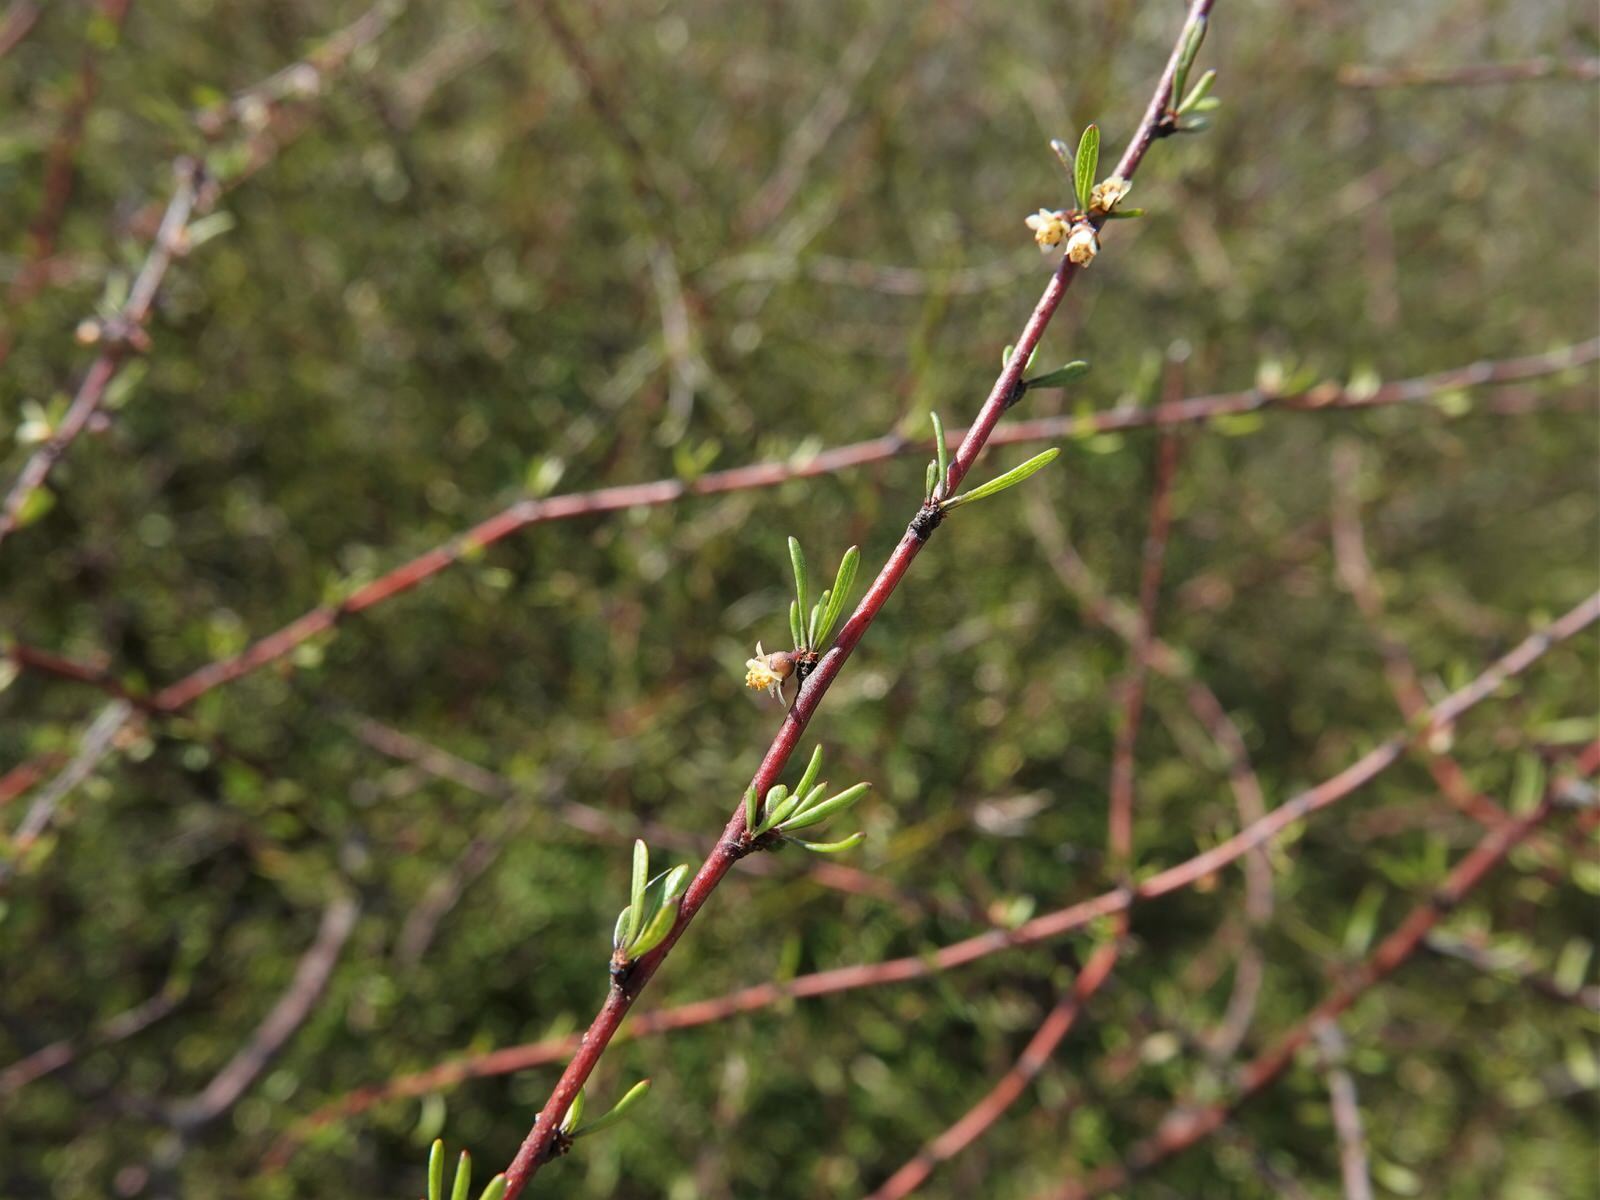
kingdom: Plantae
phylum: Tracheophyta
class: Magnoliopsida
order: Malvales
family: Malvaceae
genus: Plagianthus
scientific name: Plagianthus divaricatus
